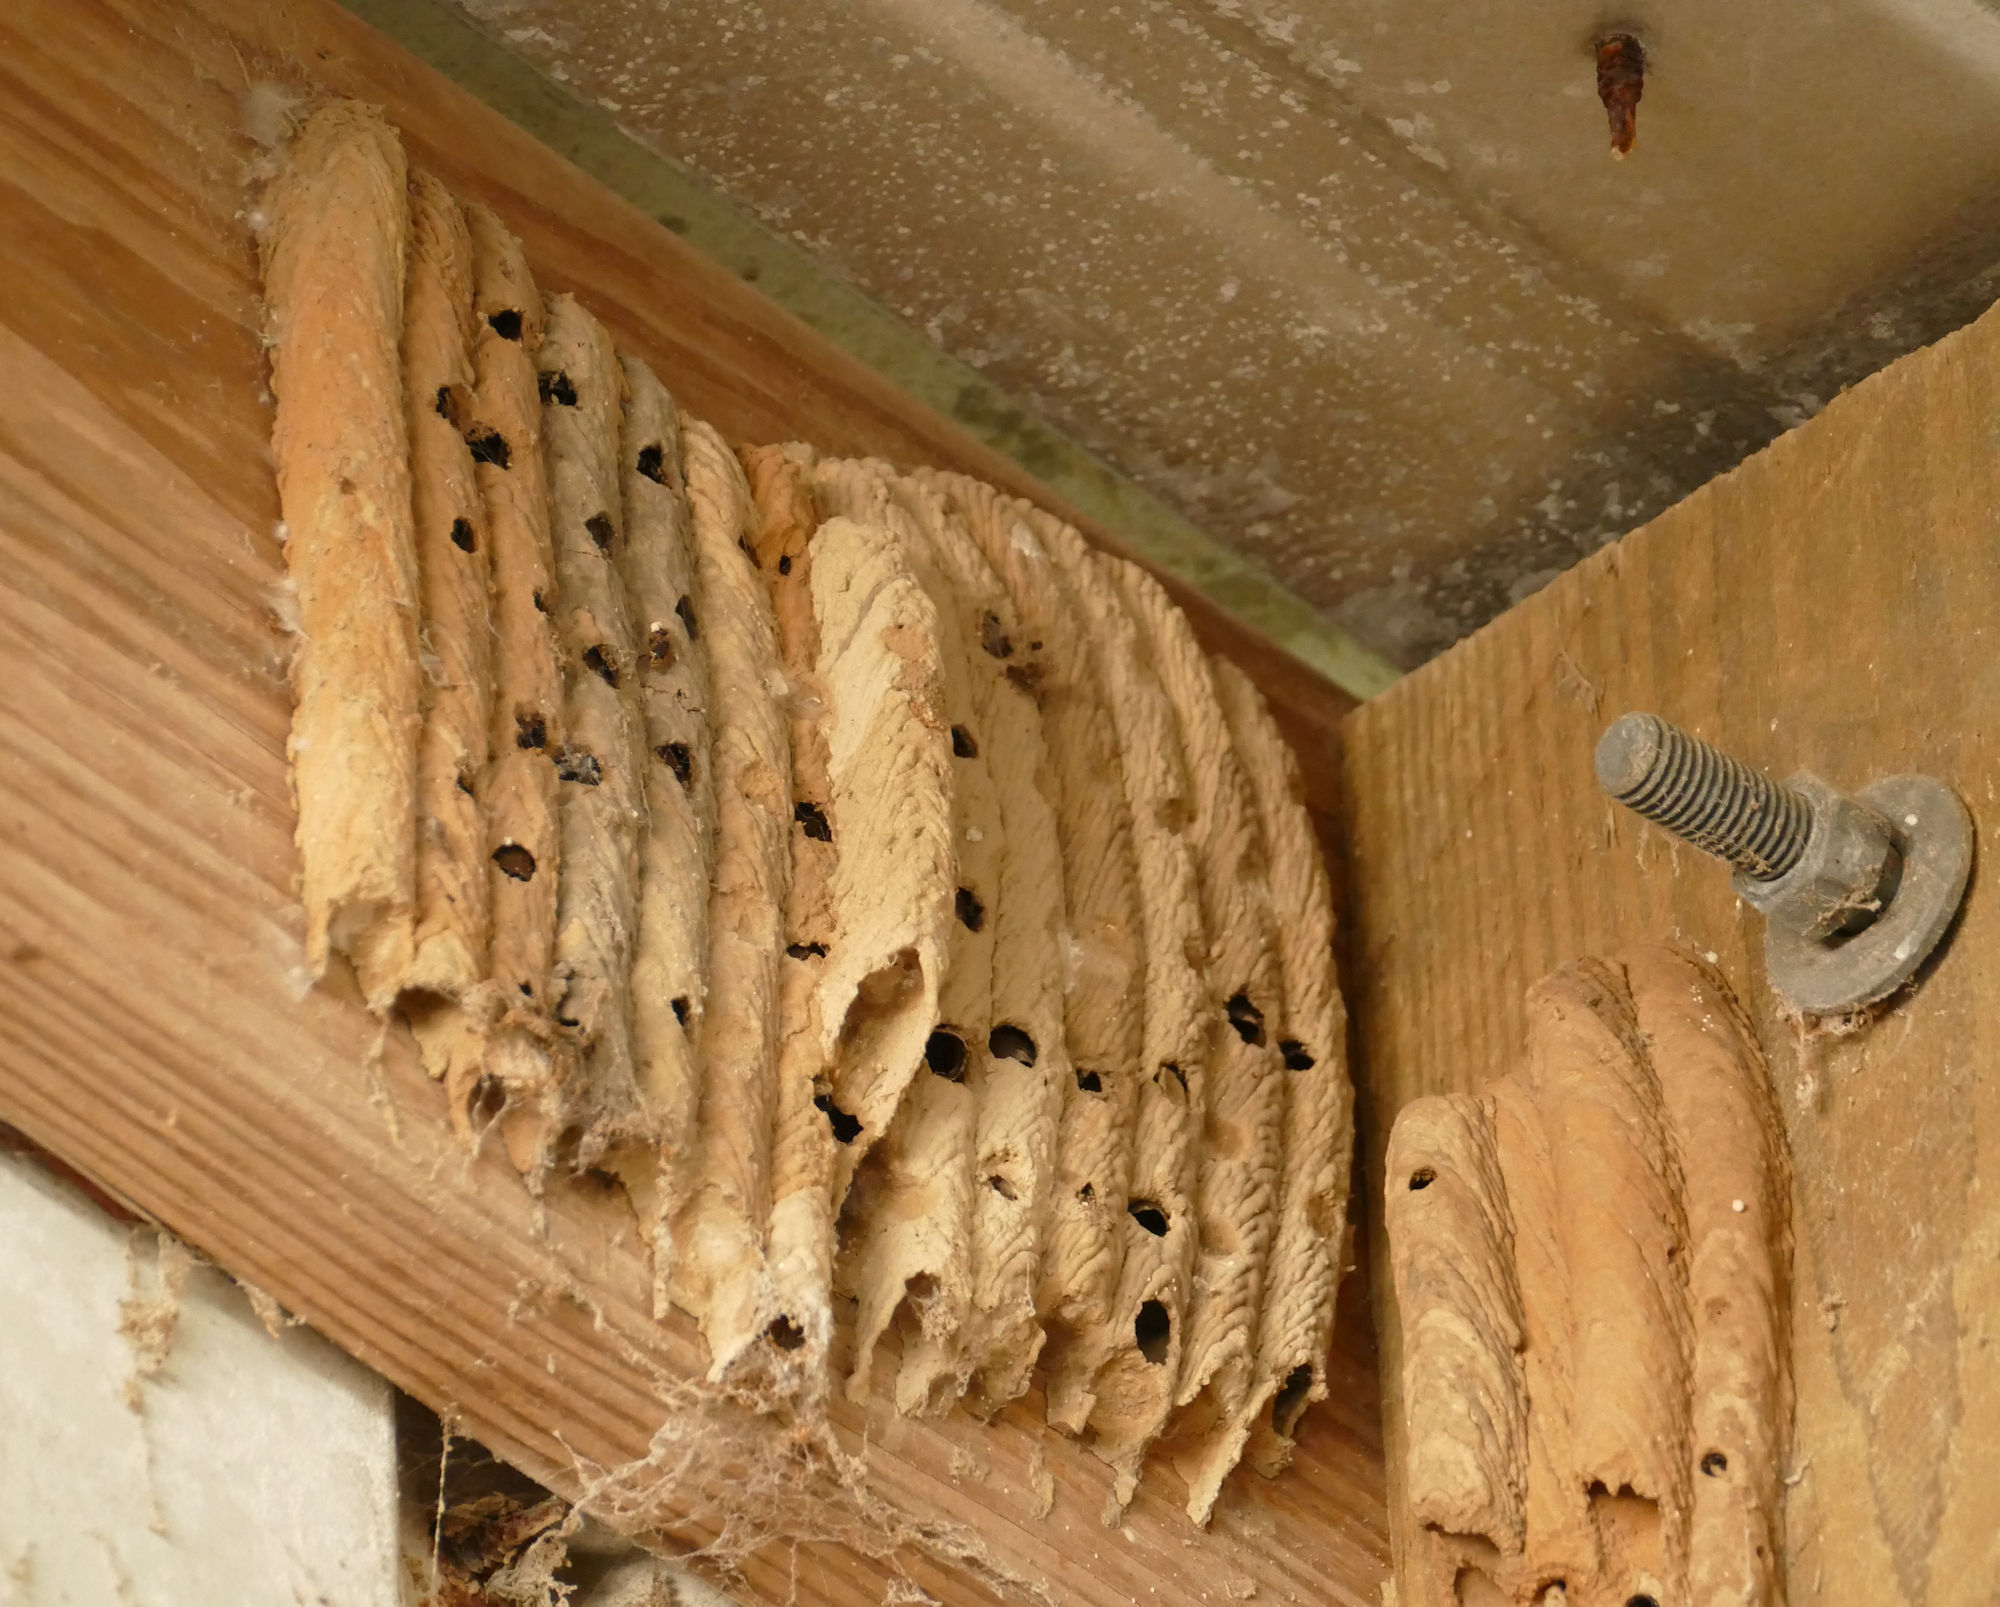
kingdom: Animalia
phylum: Arthropoda
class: Insecta
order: Hymenoptera
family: Crabronidae
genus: Trypoxylon
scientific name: Trypoxylon politum
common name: Organ-pipe mud-dauber wasp
